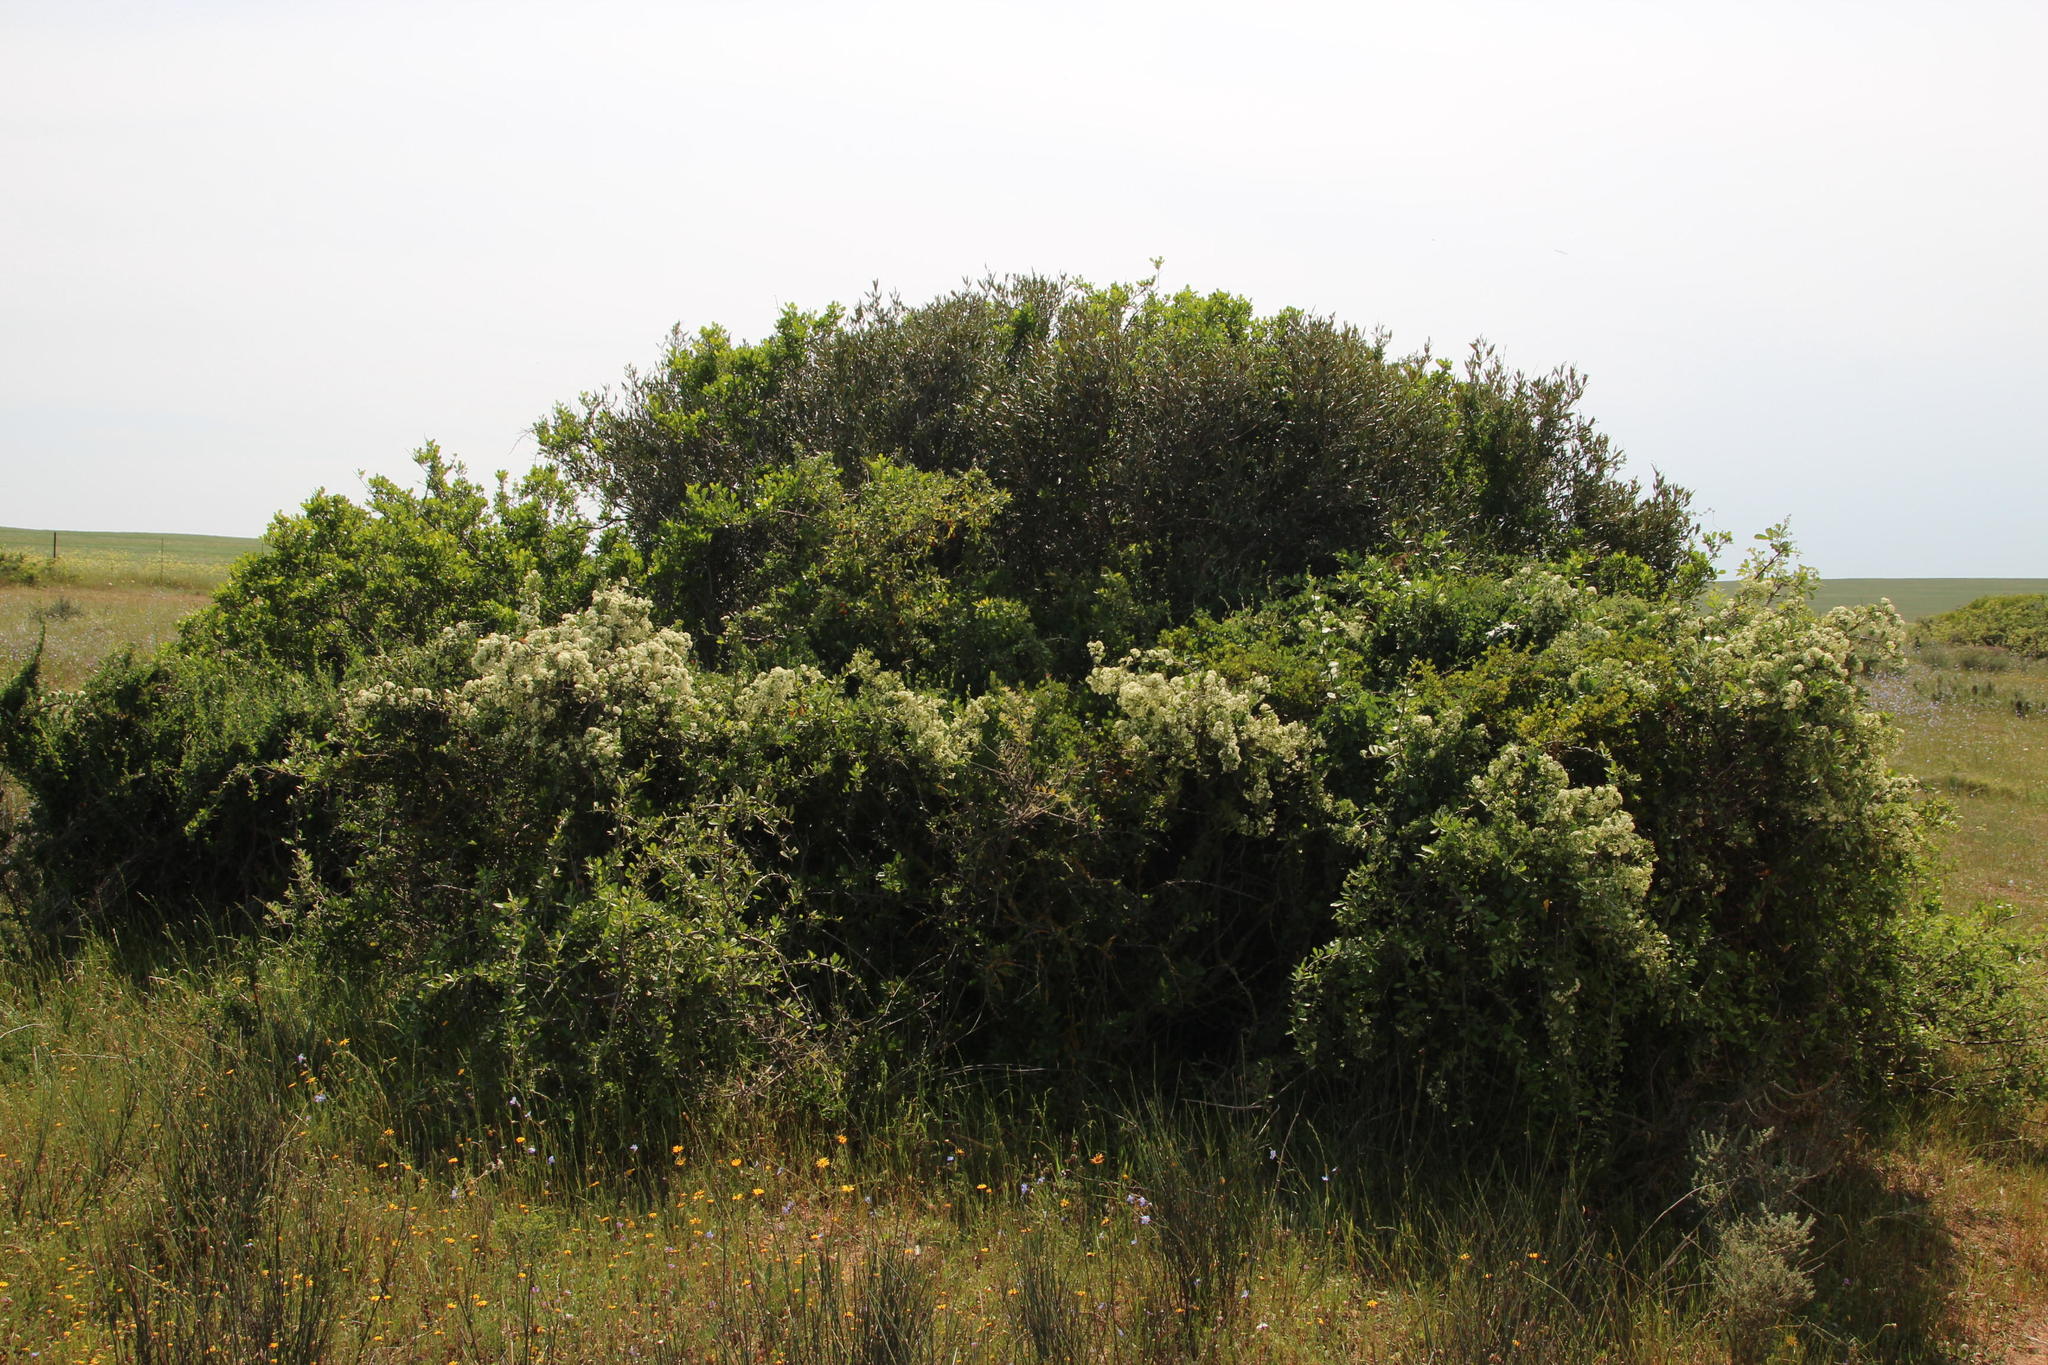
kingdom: Plantae
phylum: Tracheophyta
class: Magnoliopsida
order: Celastrales
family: Celastraceae
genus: Gymnosporia
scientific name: Gymnosporia buxifolia
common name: Common spike-thorn
